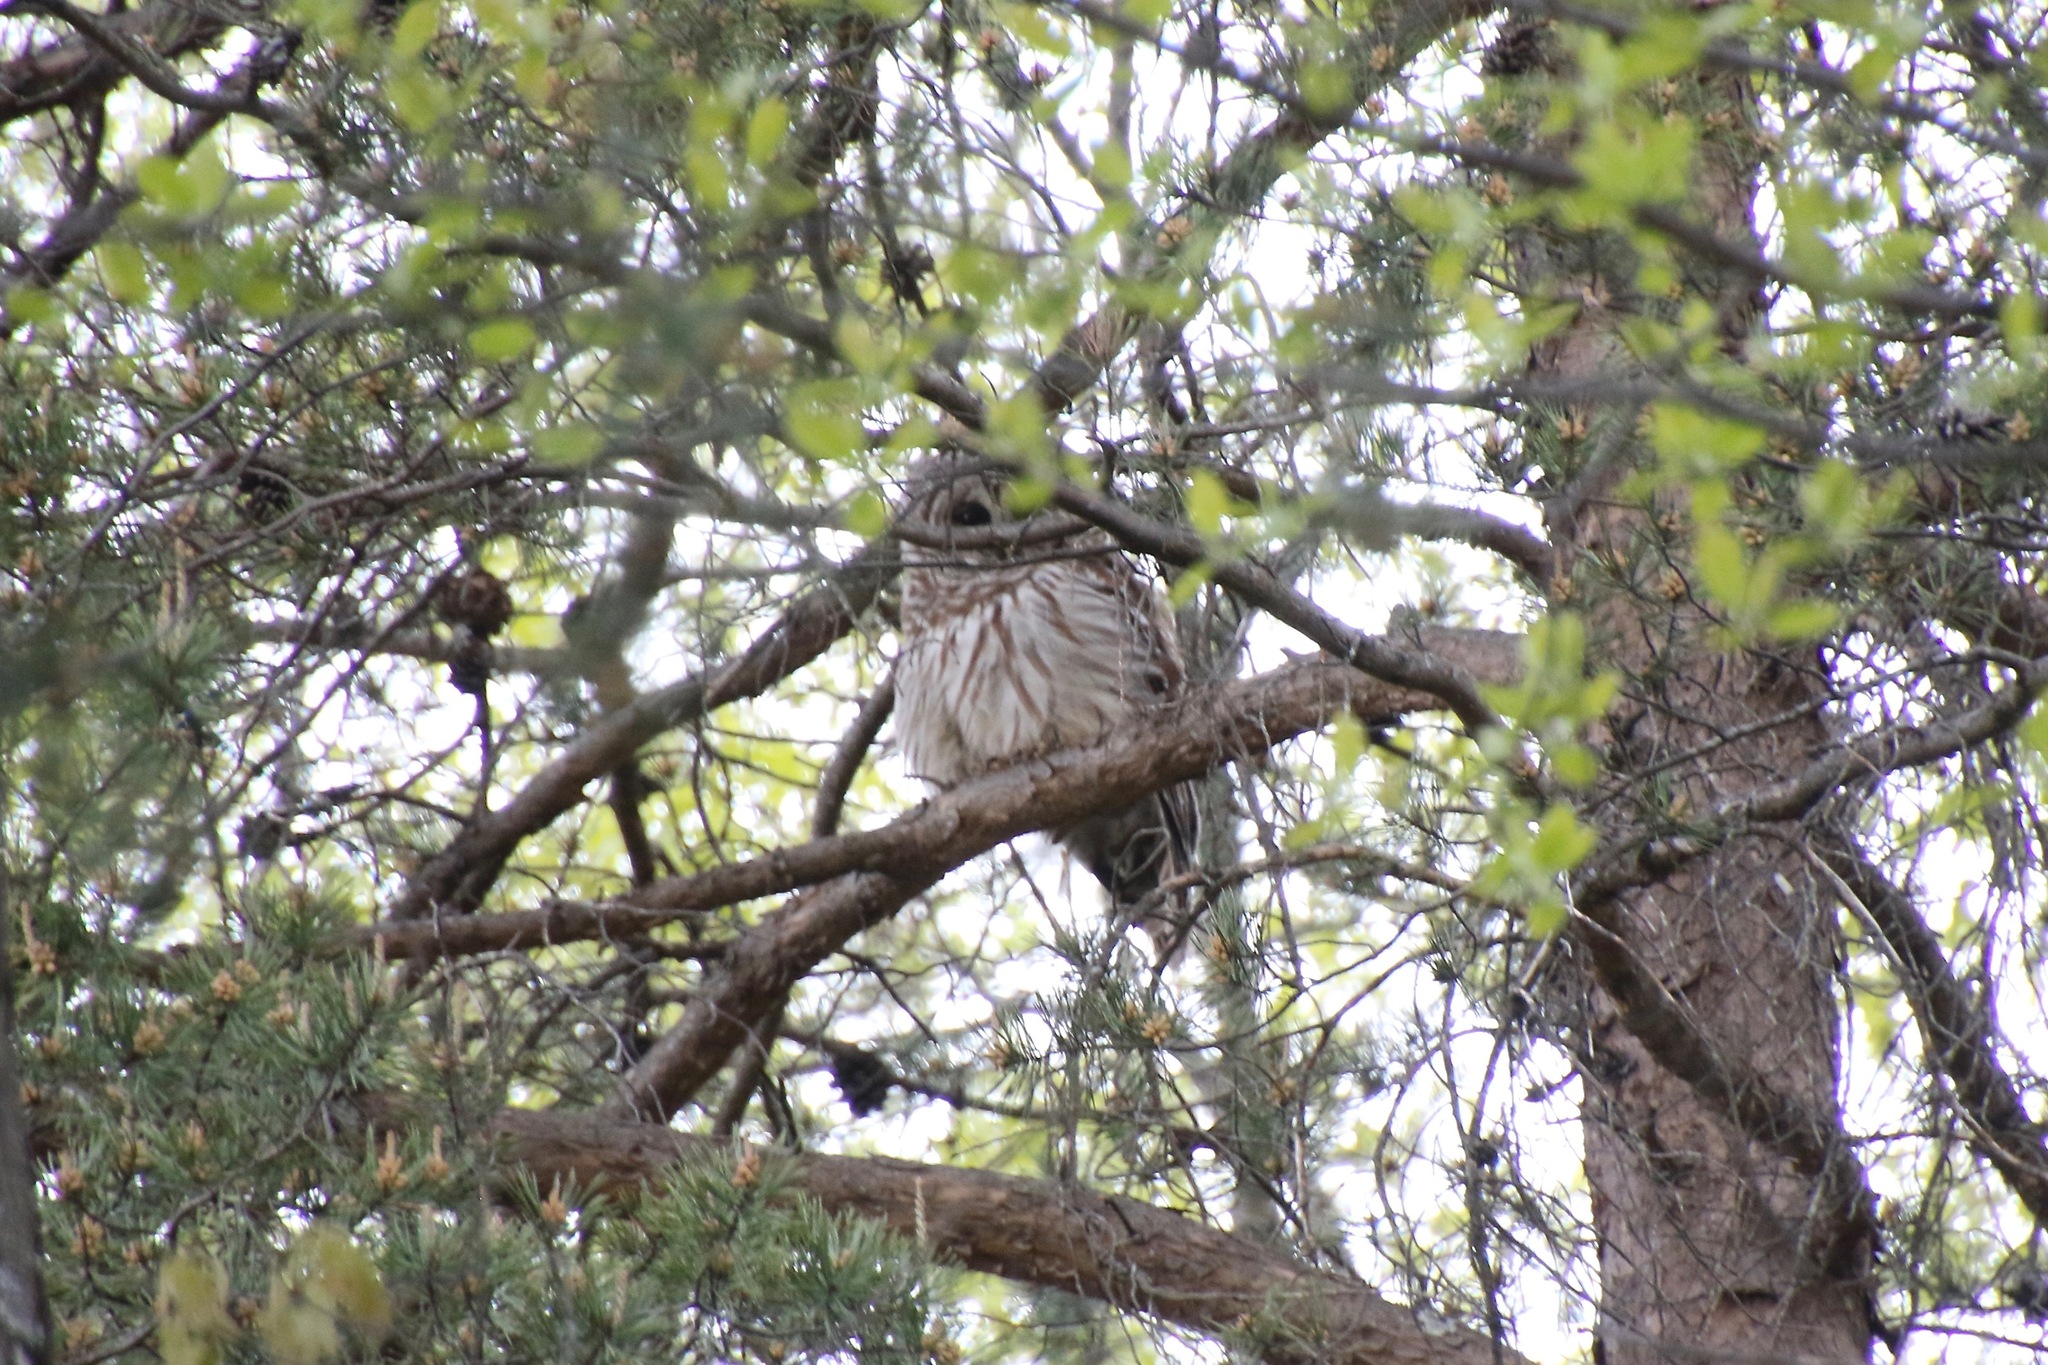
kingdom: Animalia
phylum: Chordata
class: Aves
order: Strigiformes
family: Strigidae
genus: Strix
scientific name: Strix varia
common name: Barred owl
